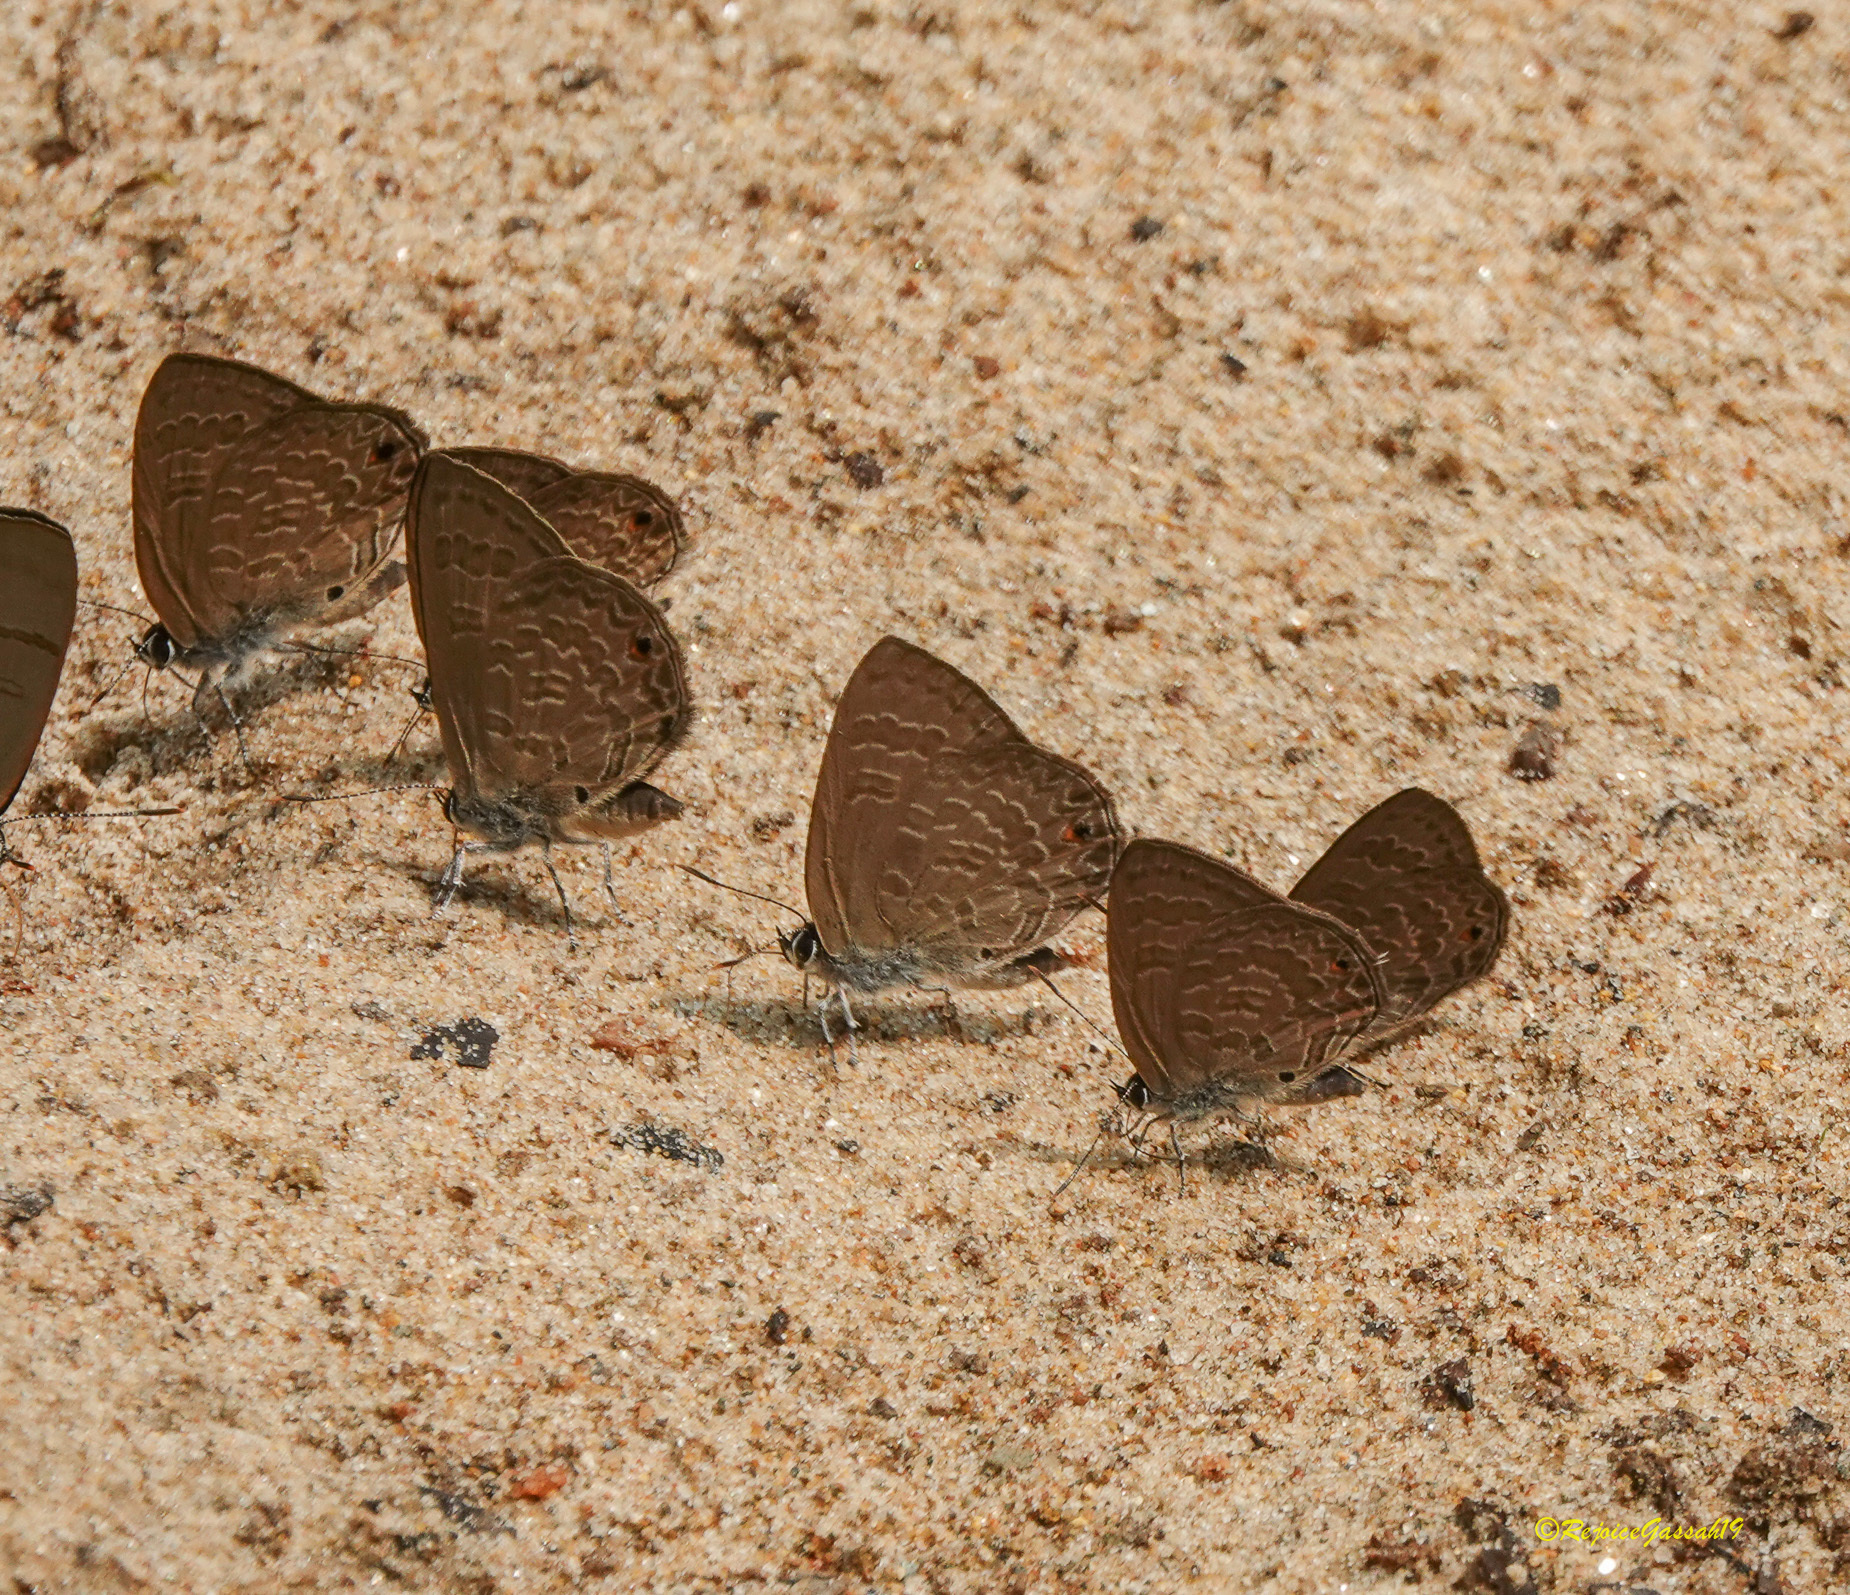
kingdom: Animalia
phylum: Arthropoda
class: Insecta
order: Lepidoptera
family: Lycaenidae
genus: Anthene
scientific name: Anthene emolus
